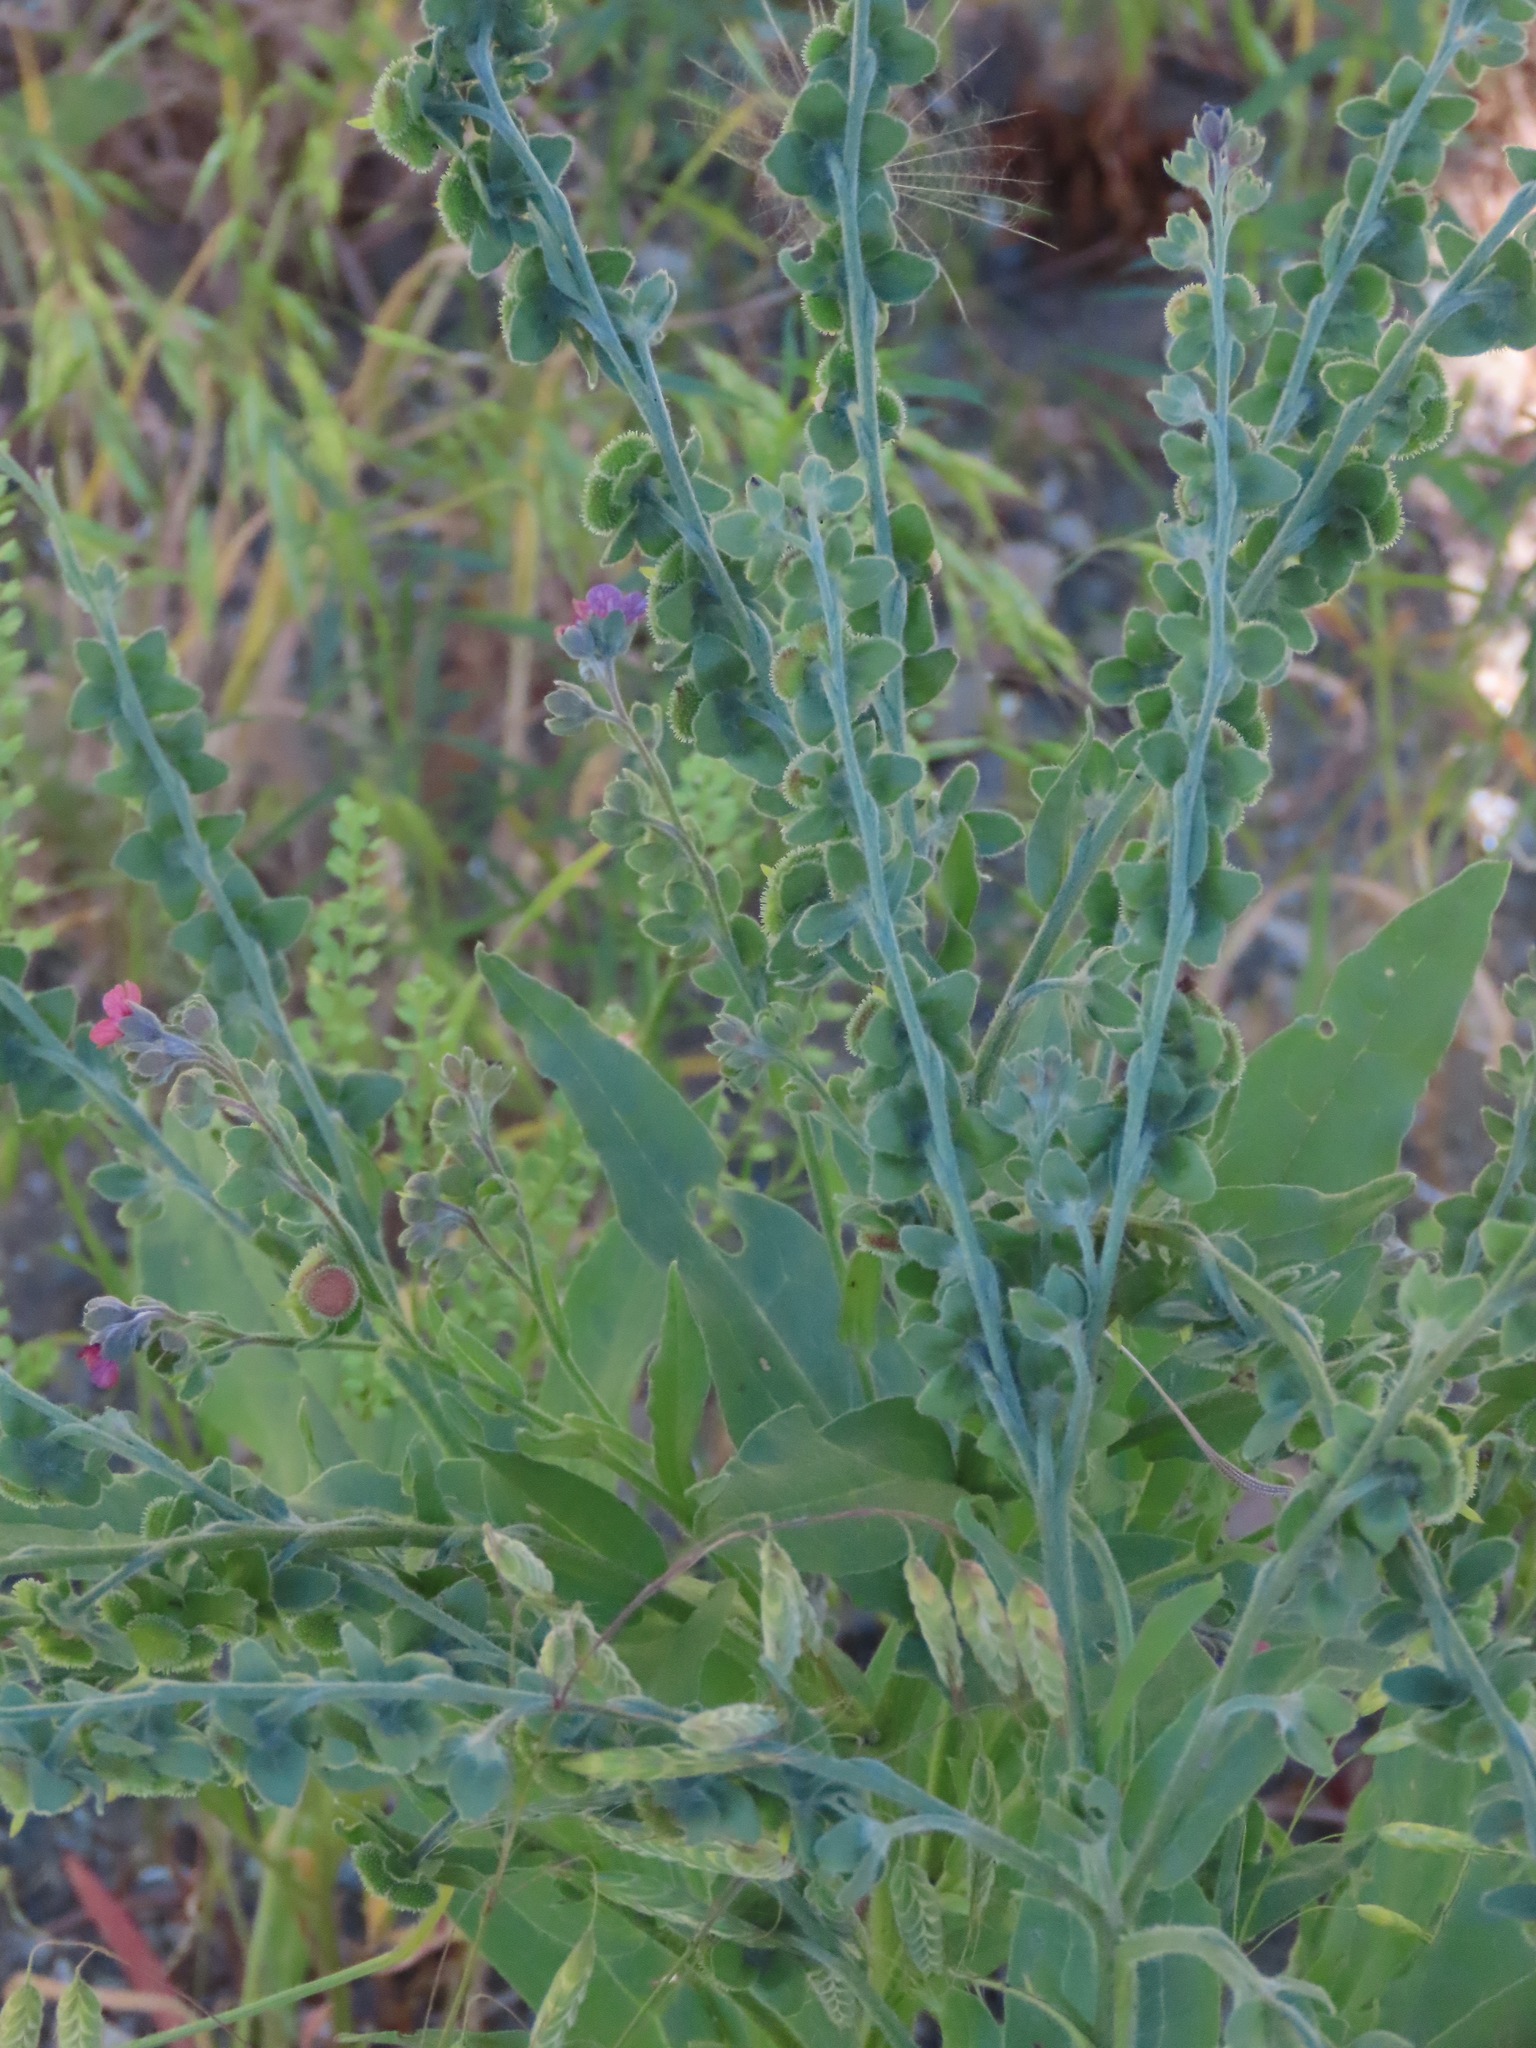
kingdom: Plantae
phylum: Tracheophyta
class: Magnoliopsida
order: Boraginales
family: Boraginaceae
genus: Cynoglossum
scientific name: Cynoglossum officinale
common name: Hound's-tongue
